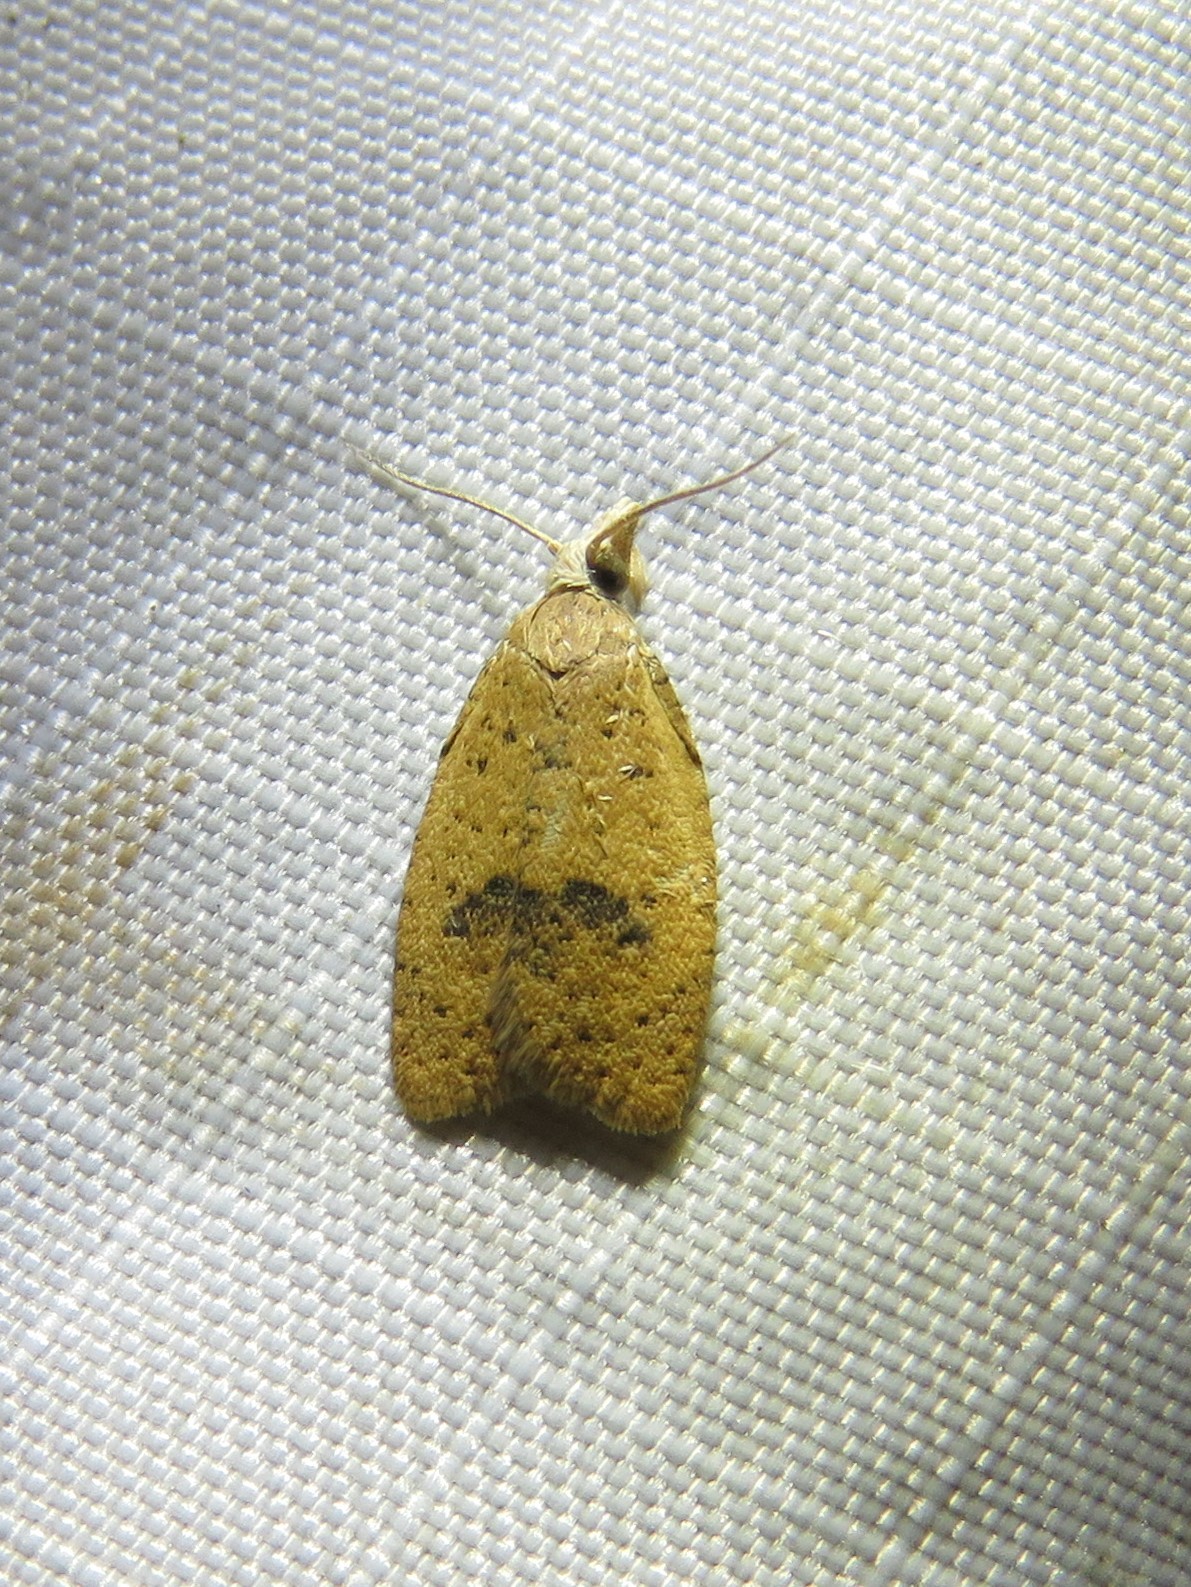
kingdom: Animalia
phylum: Arthropoda
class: Insecta
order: Lepidoptera
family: Tortricidae
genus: Sparganothoides
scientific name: Sparganothoides lentiginosana
